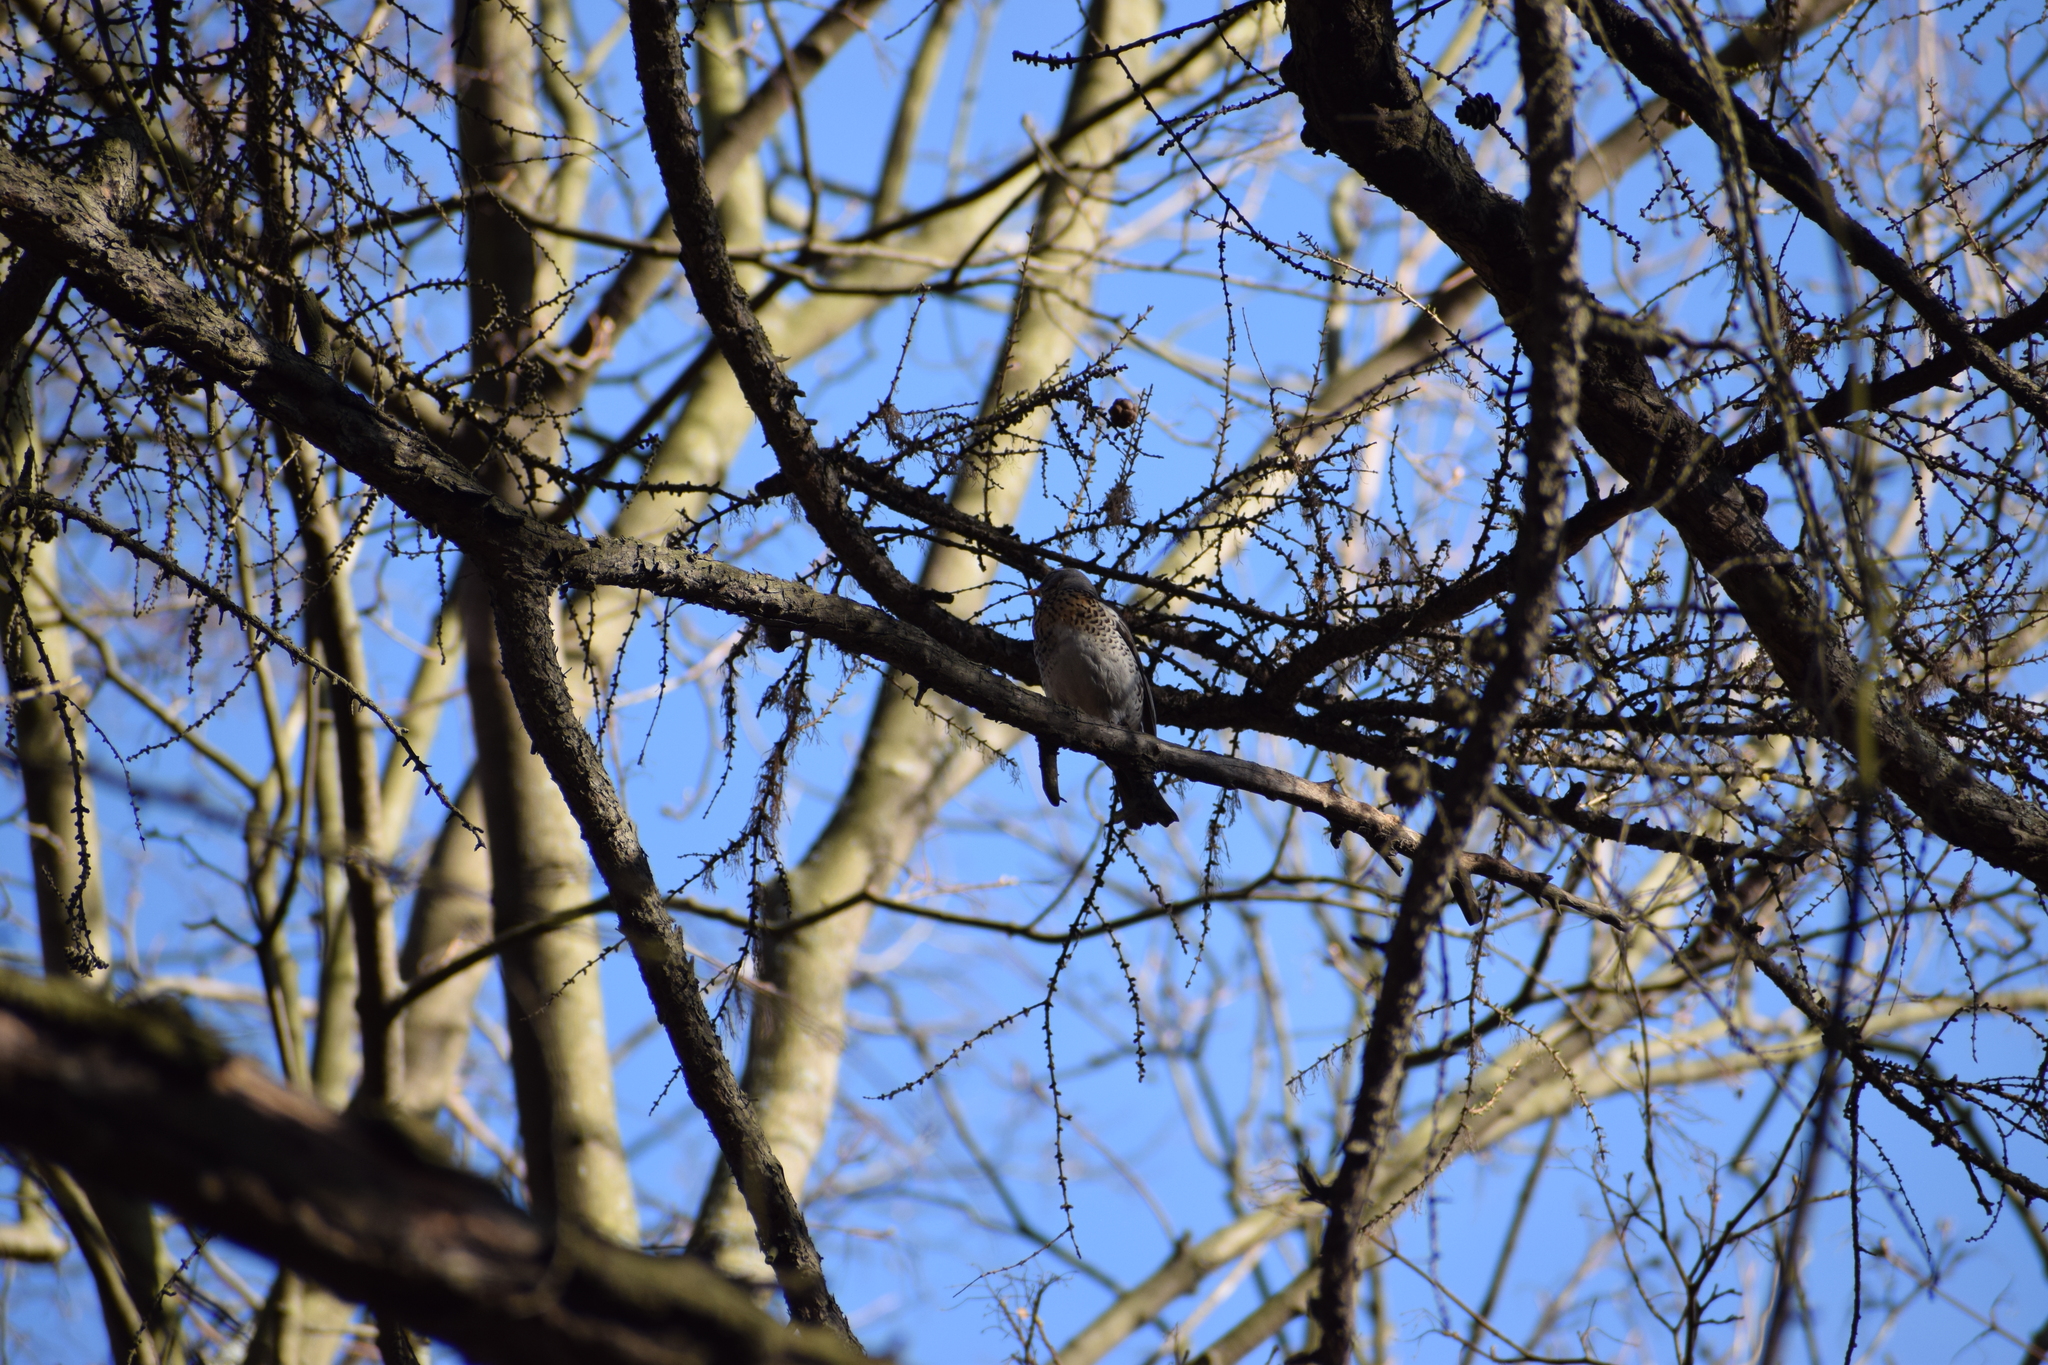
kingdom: Animalia
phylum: Chordata
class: Aves
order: Passeriformes
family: Turdidae
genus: Turdus
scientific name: Turdus pilaris
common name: Fieldfare
